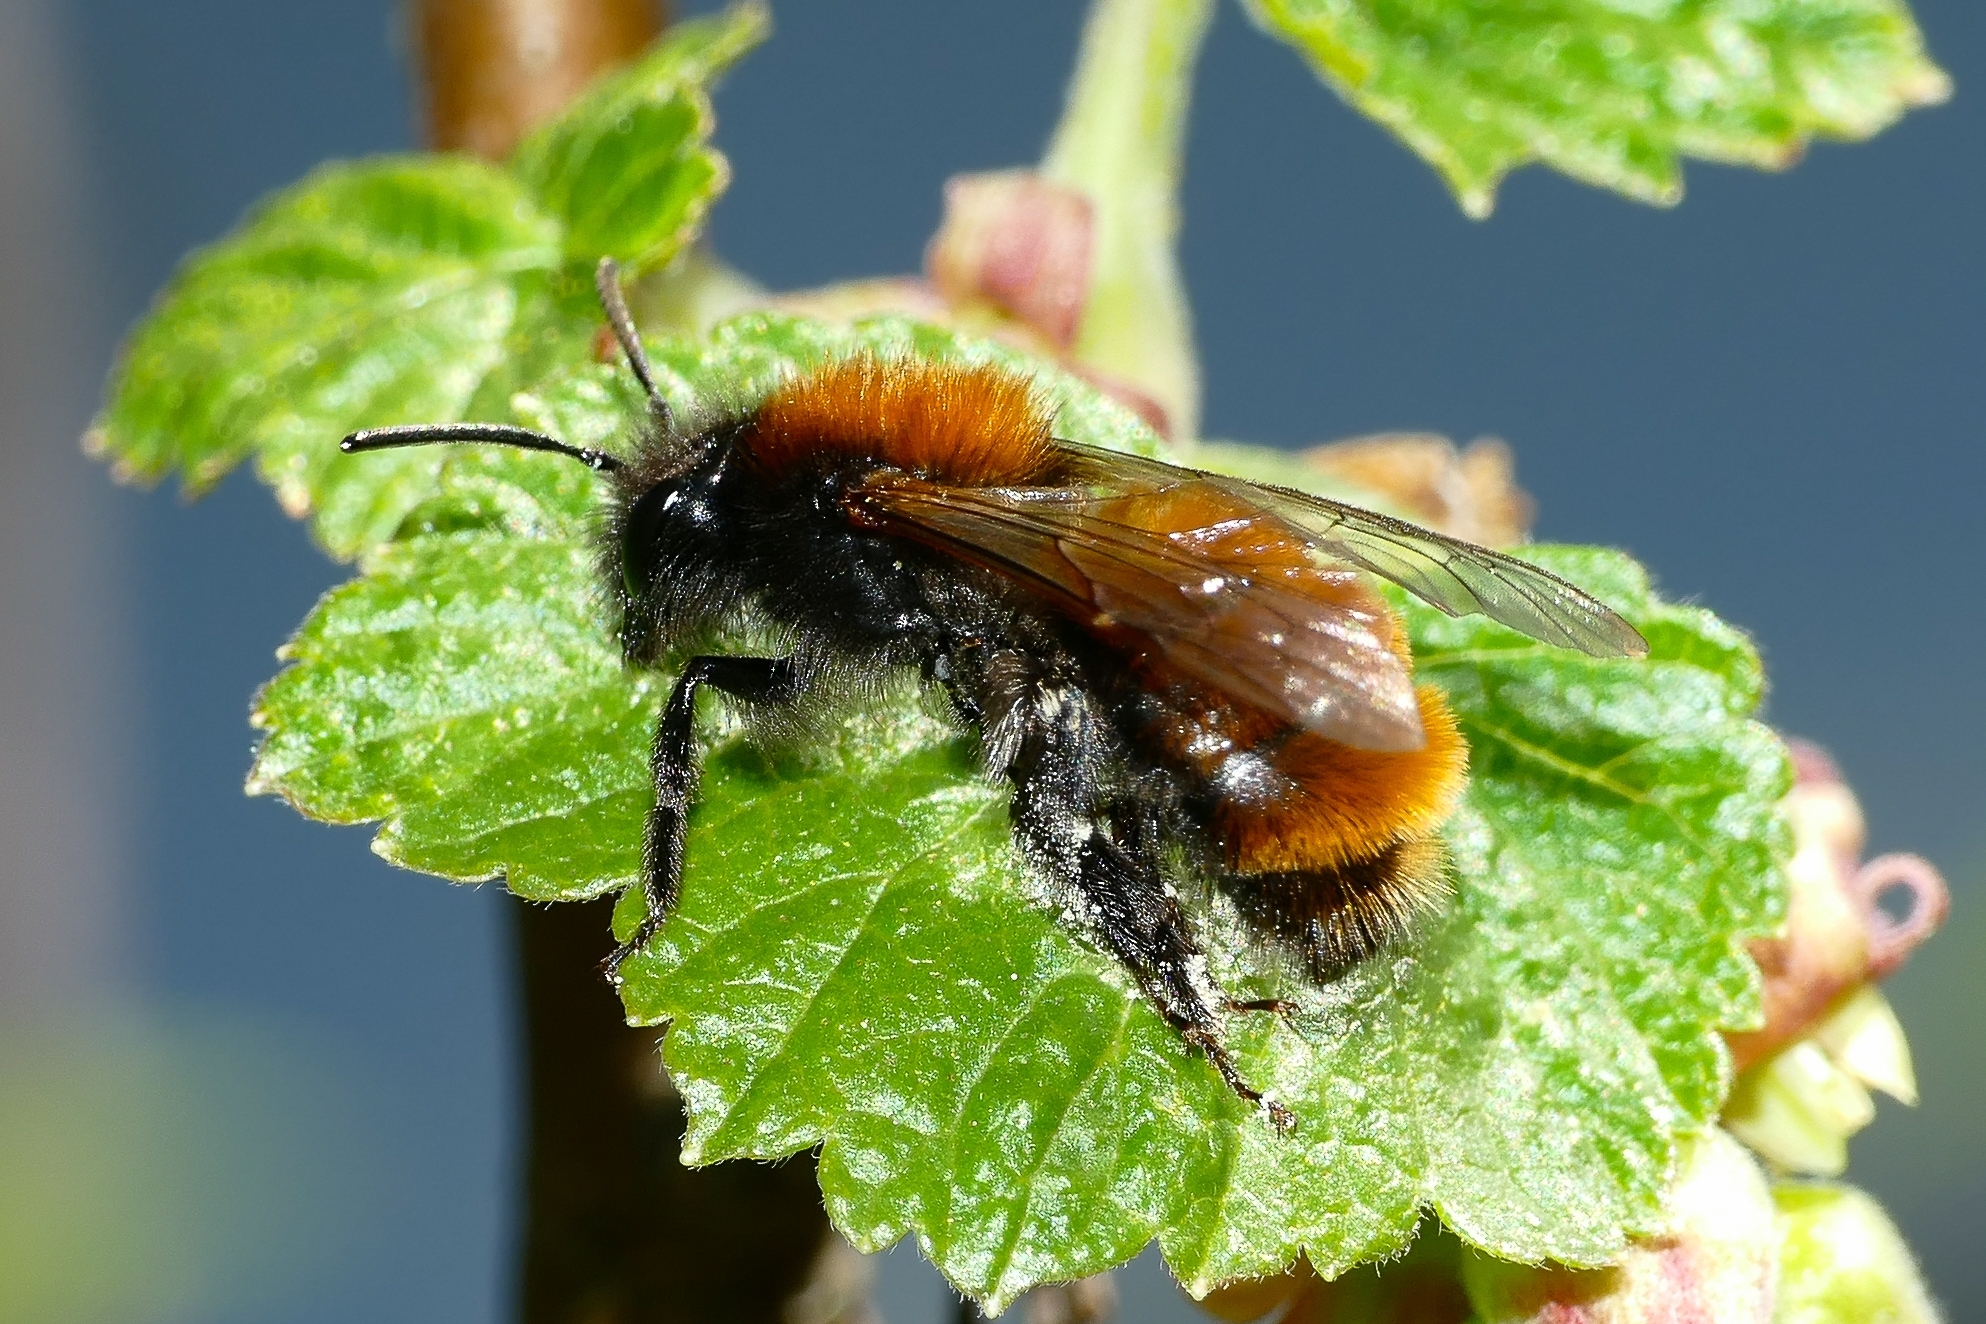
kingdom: Animalia
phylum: Arthropoda
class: Insecta
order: Hymenoptera
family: Andrenidae
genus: Andrena
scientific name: Andrena fulva
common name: Tawny mining bee
